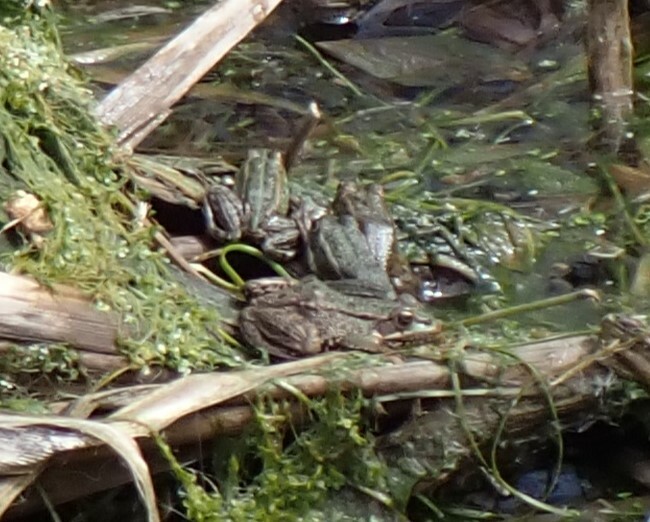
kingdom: Animalia
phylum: Chordata
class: Amphibia
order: Anura
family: Ranidae
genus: Pelophylax
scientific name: Pelophylax perezi
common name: Perez's frog
